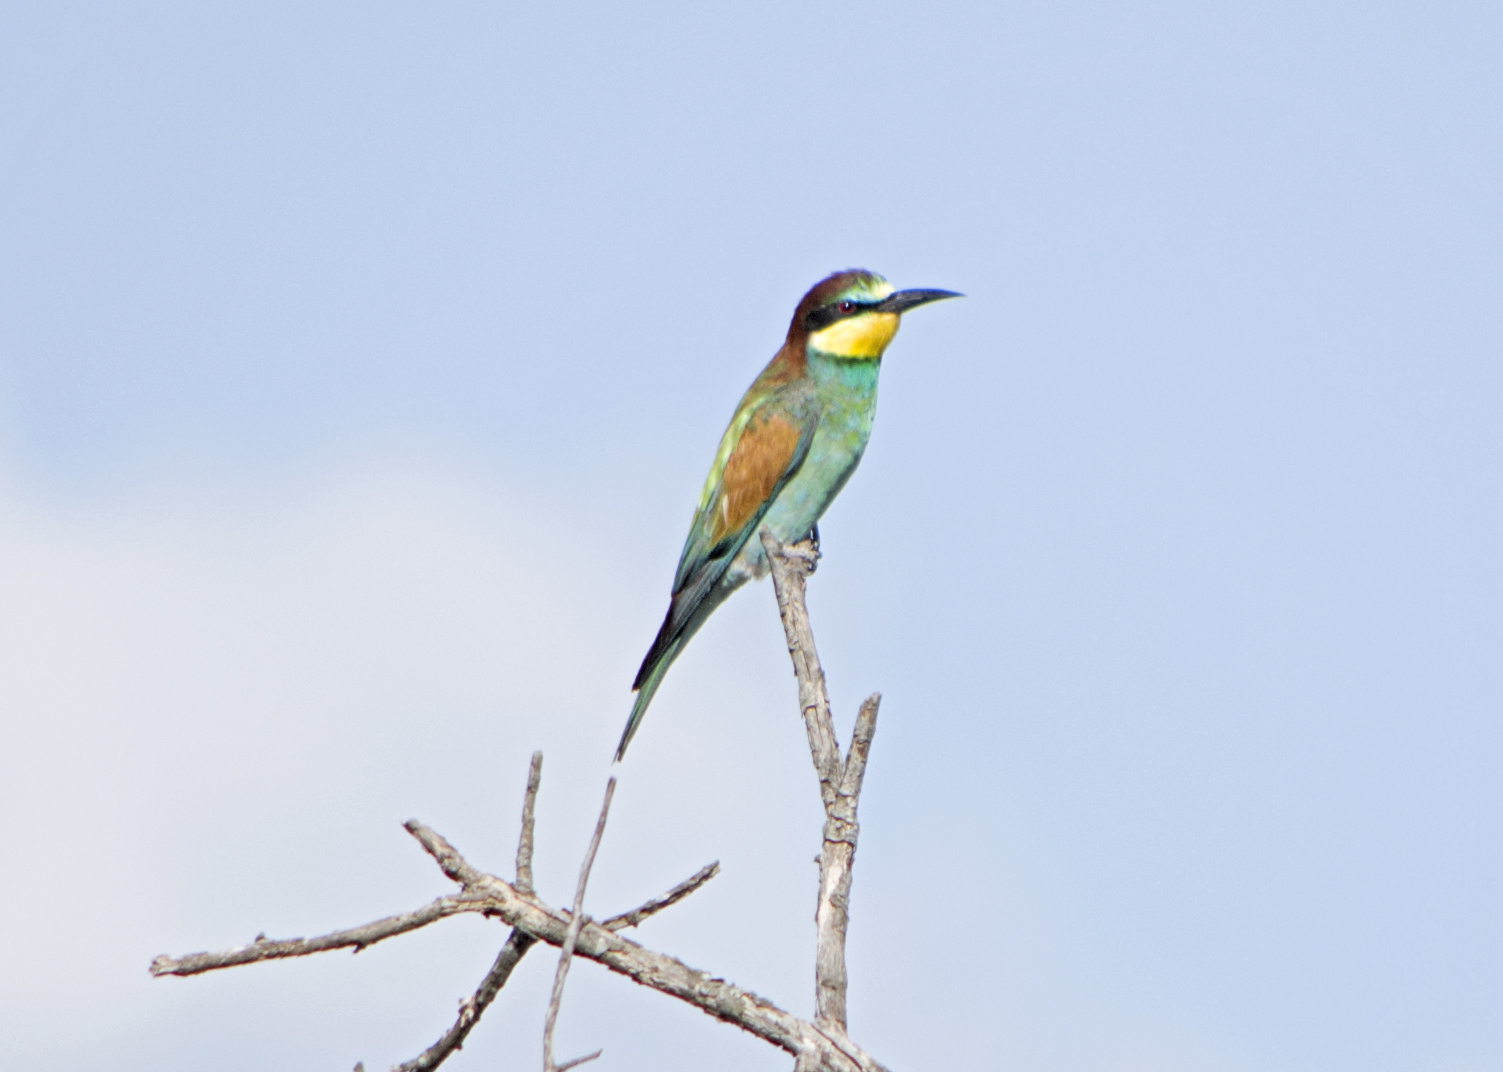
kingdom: Animalia
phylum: Chordata
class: Aves
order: Coraciiformes
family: Meropidae
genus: Merops
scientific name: Merops apiaster
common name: European bee-eater
